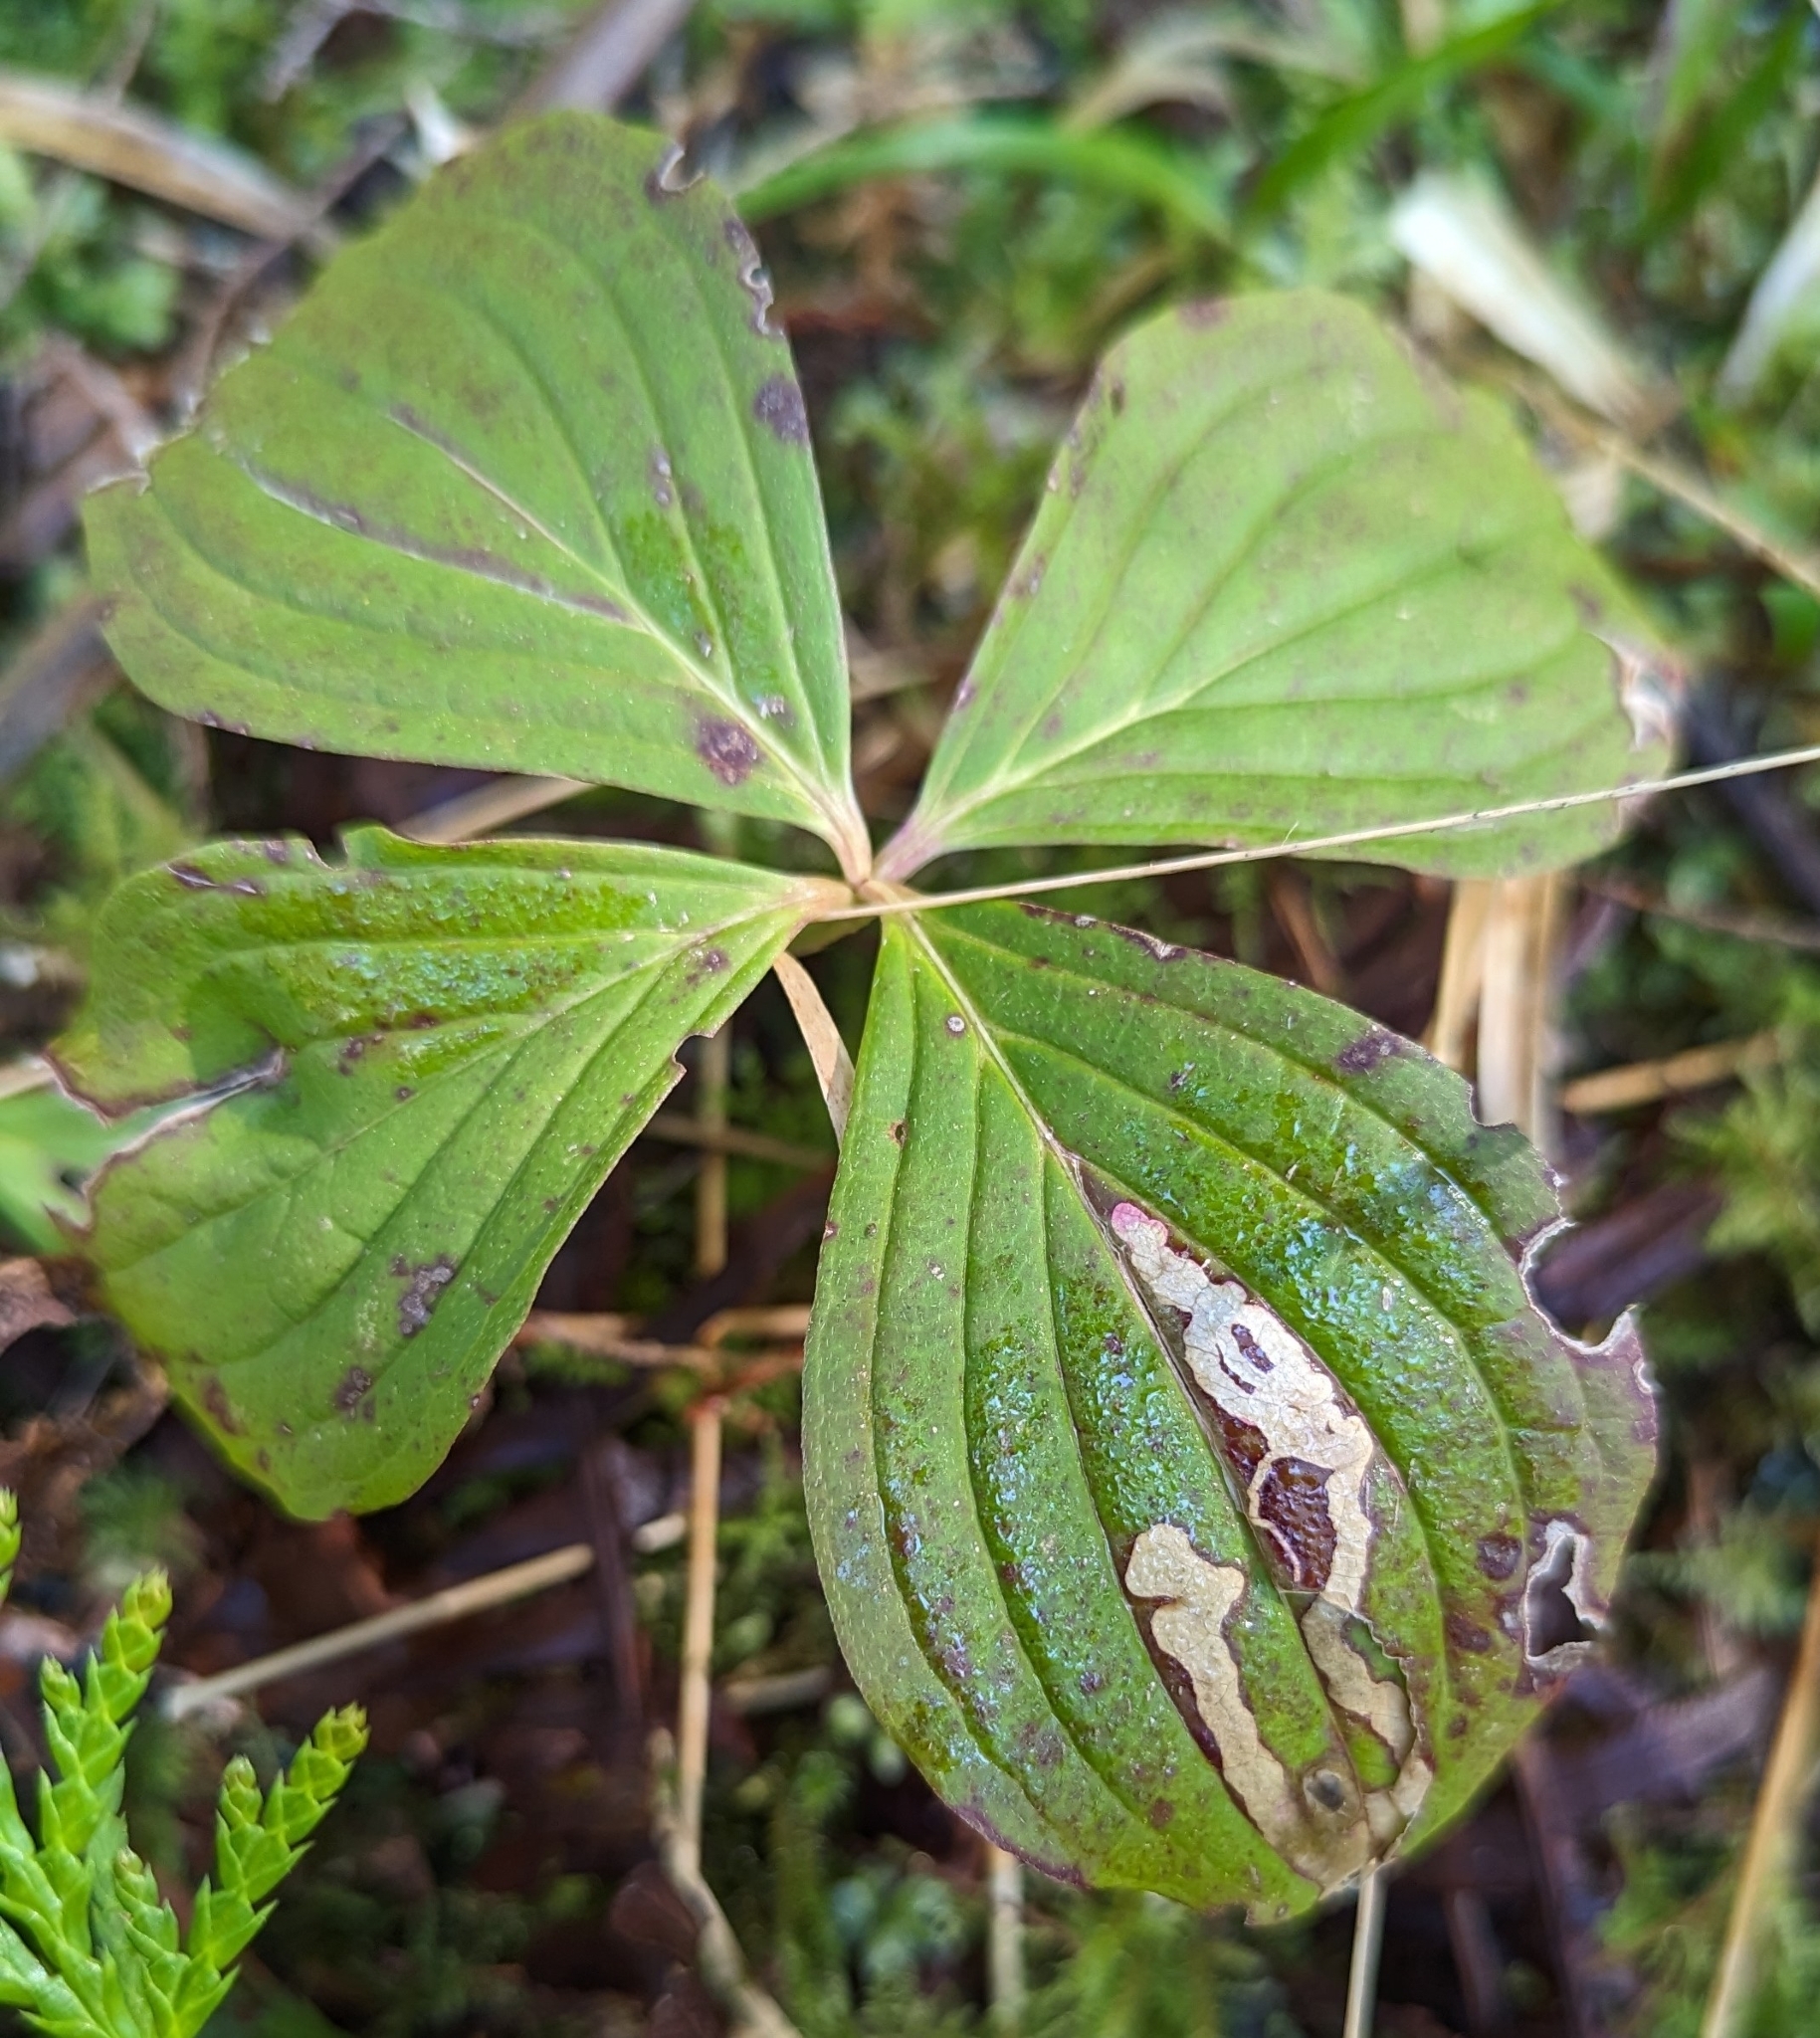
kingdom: Animalia
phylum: Arthropoda
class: Insecta
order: Diptera
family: Agromyzidae
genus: Phytomyza
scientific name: Phytomyza agromyzina
